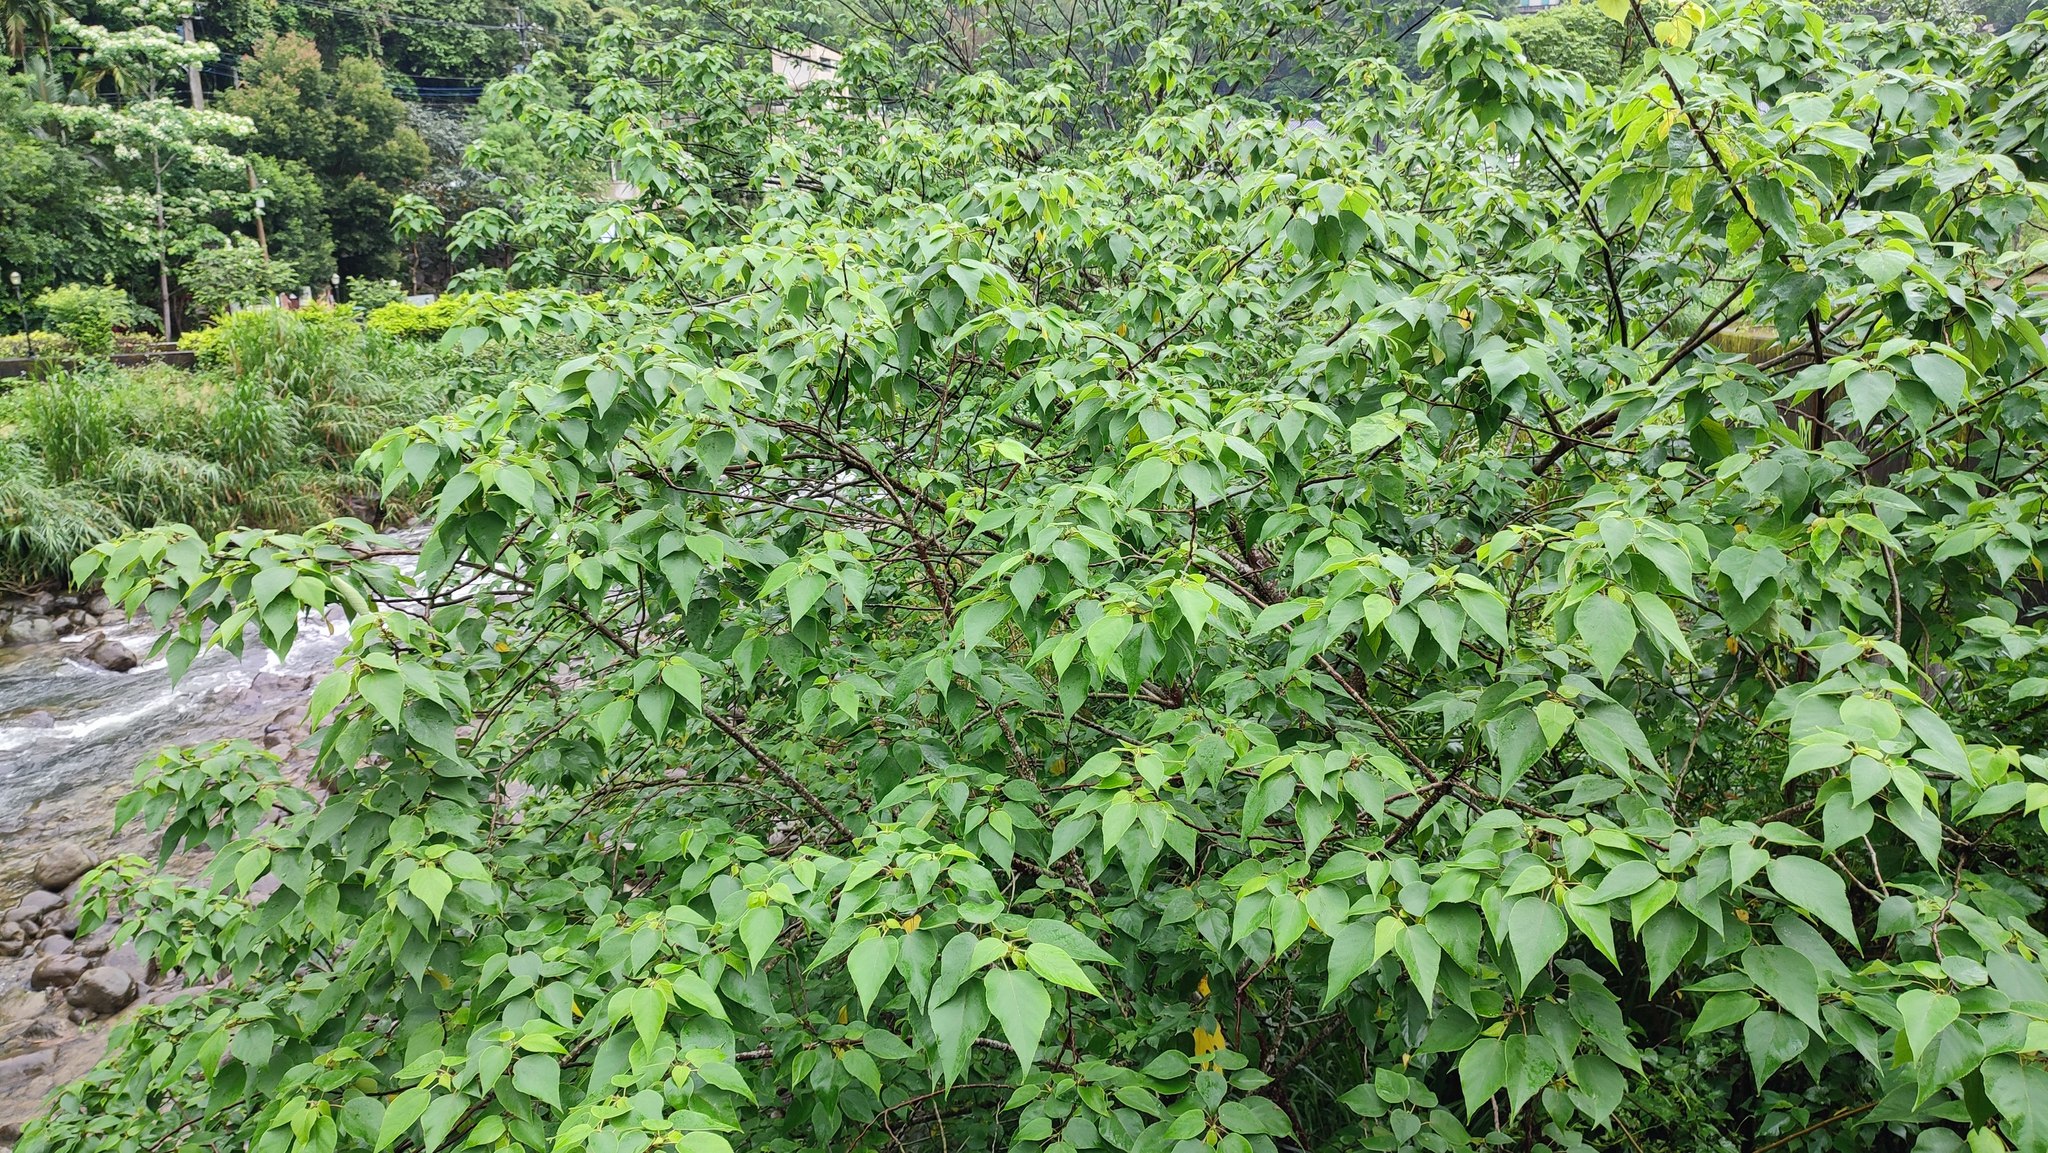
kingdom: Plantae
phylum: Tracheophyta
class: Magnoliopsida
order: Rosales
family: Moraceae
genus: Broussonetia
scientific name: Broussonetia papyrifera
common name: Paper mulberry
